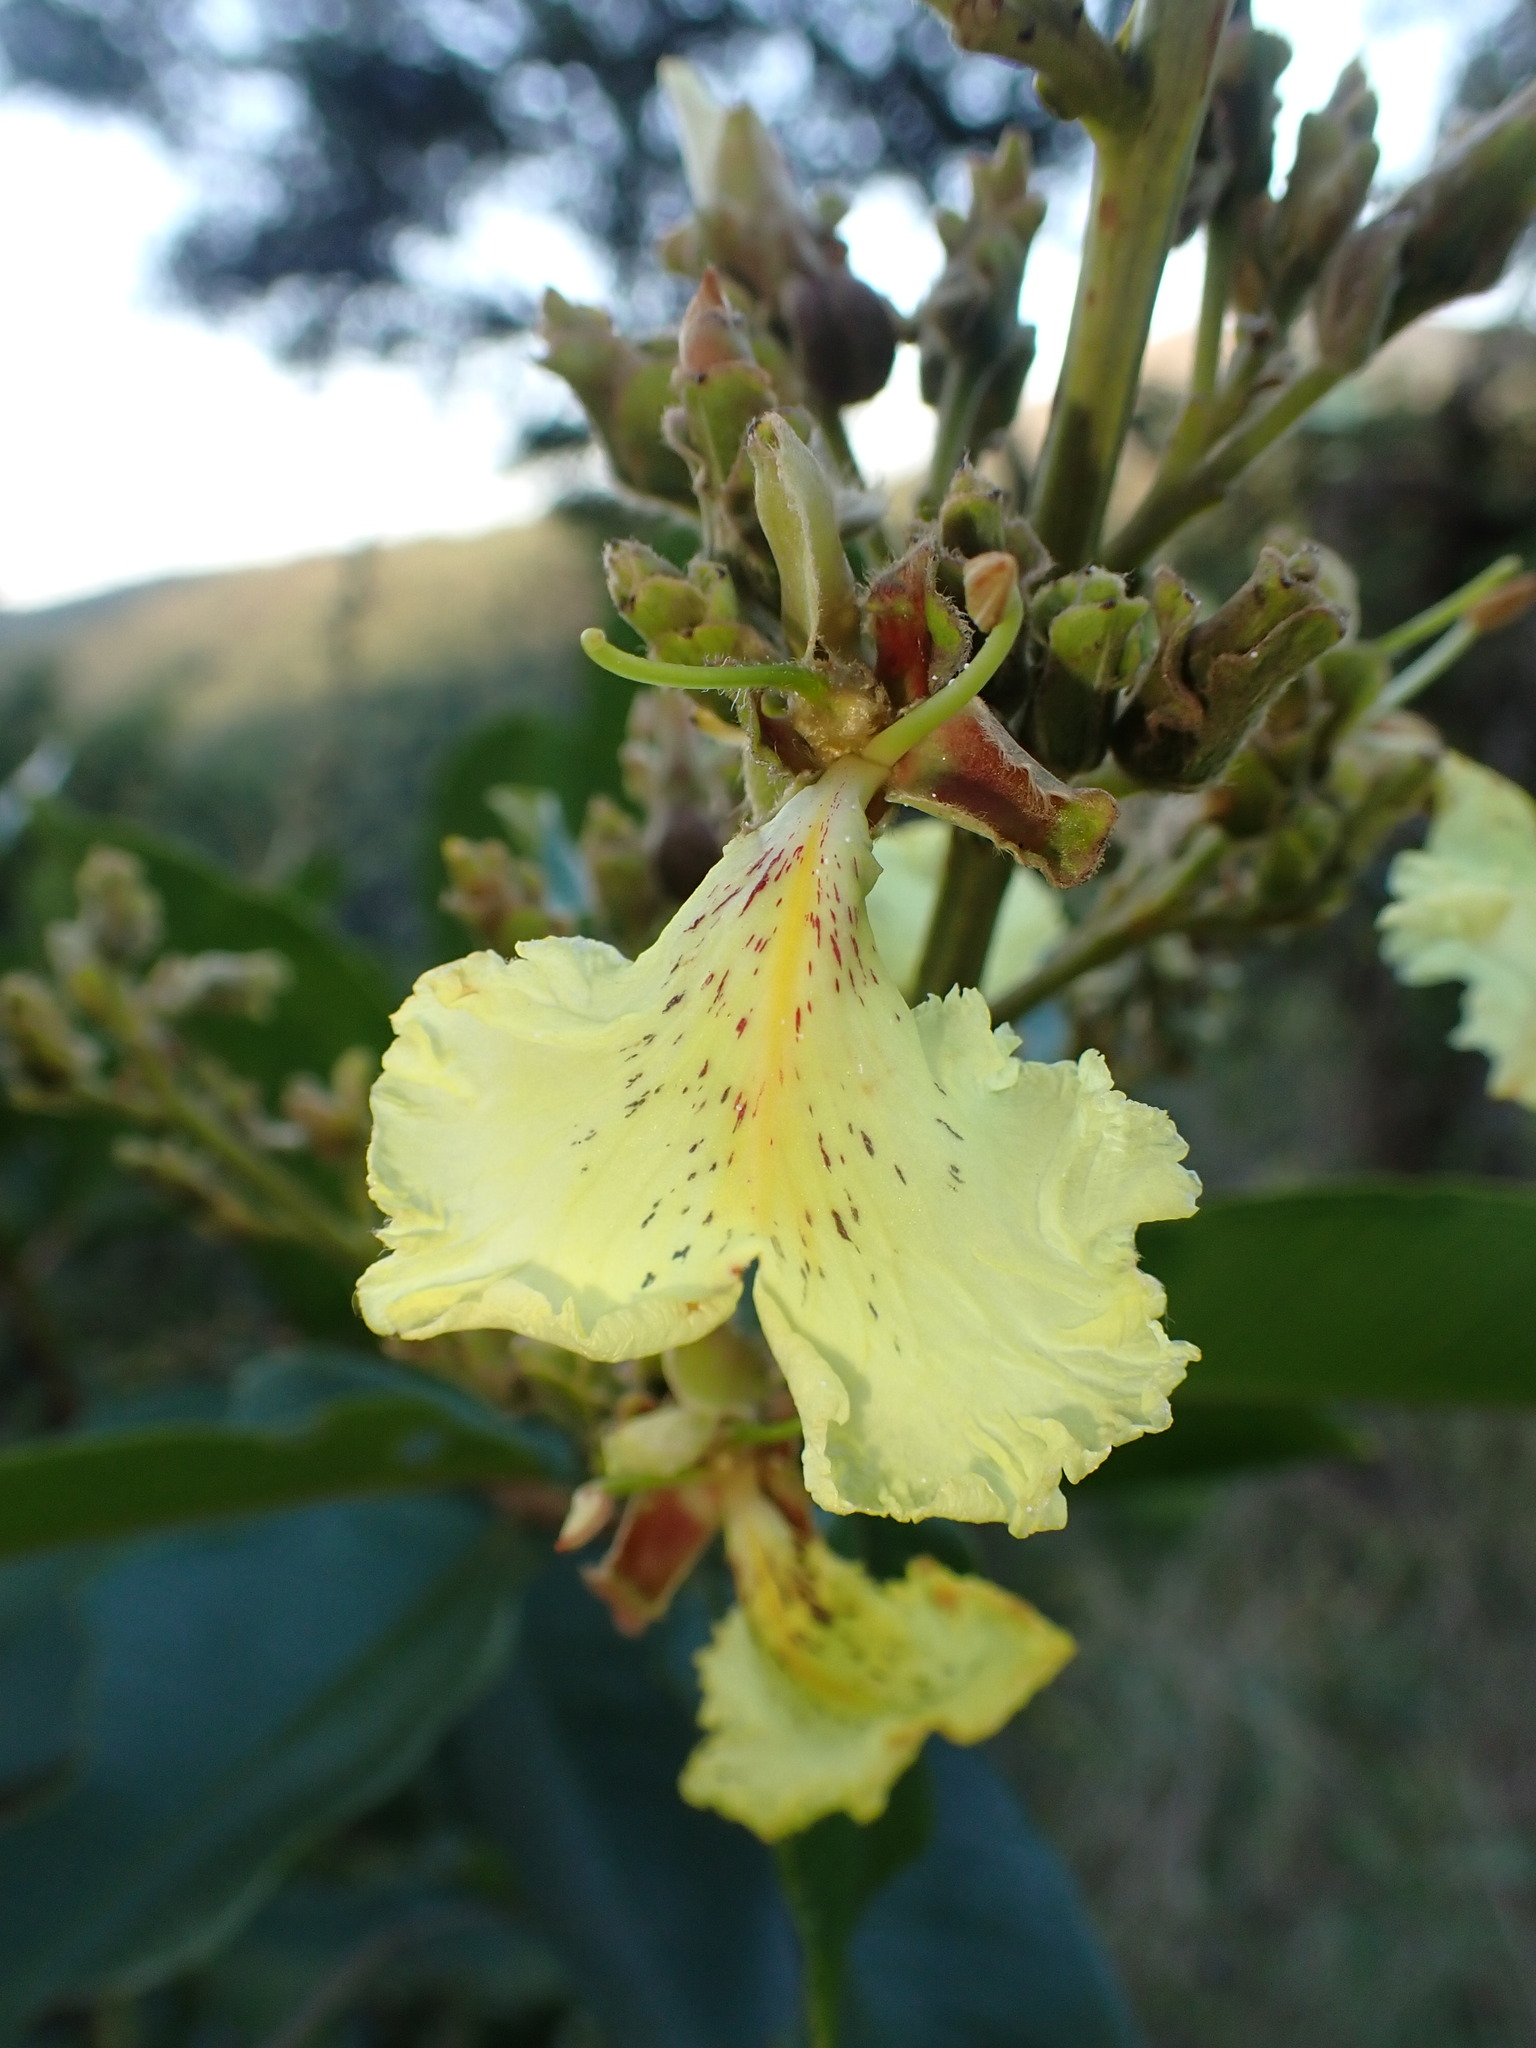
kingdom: Plantae
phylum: Tracheophyta
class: Magnoliopsida
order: Myrtales
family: Vochysiaceae
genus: Qualea
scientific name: Qualea multiflora
